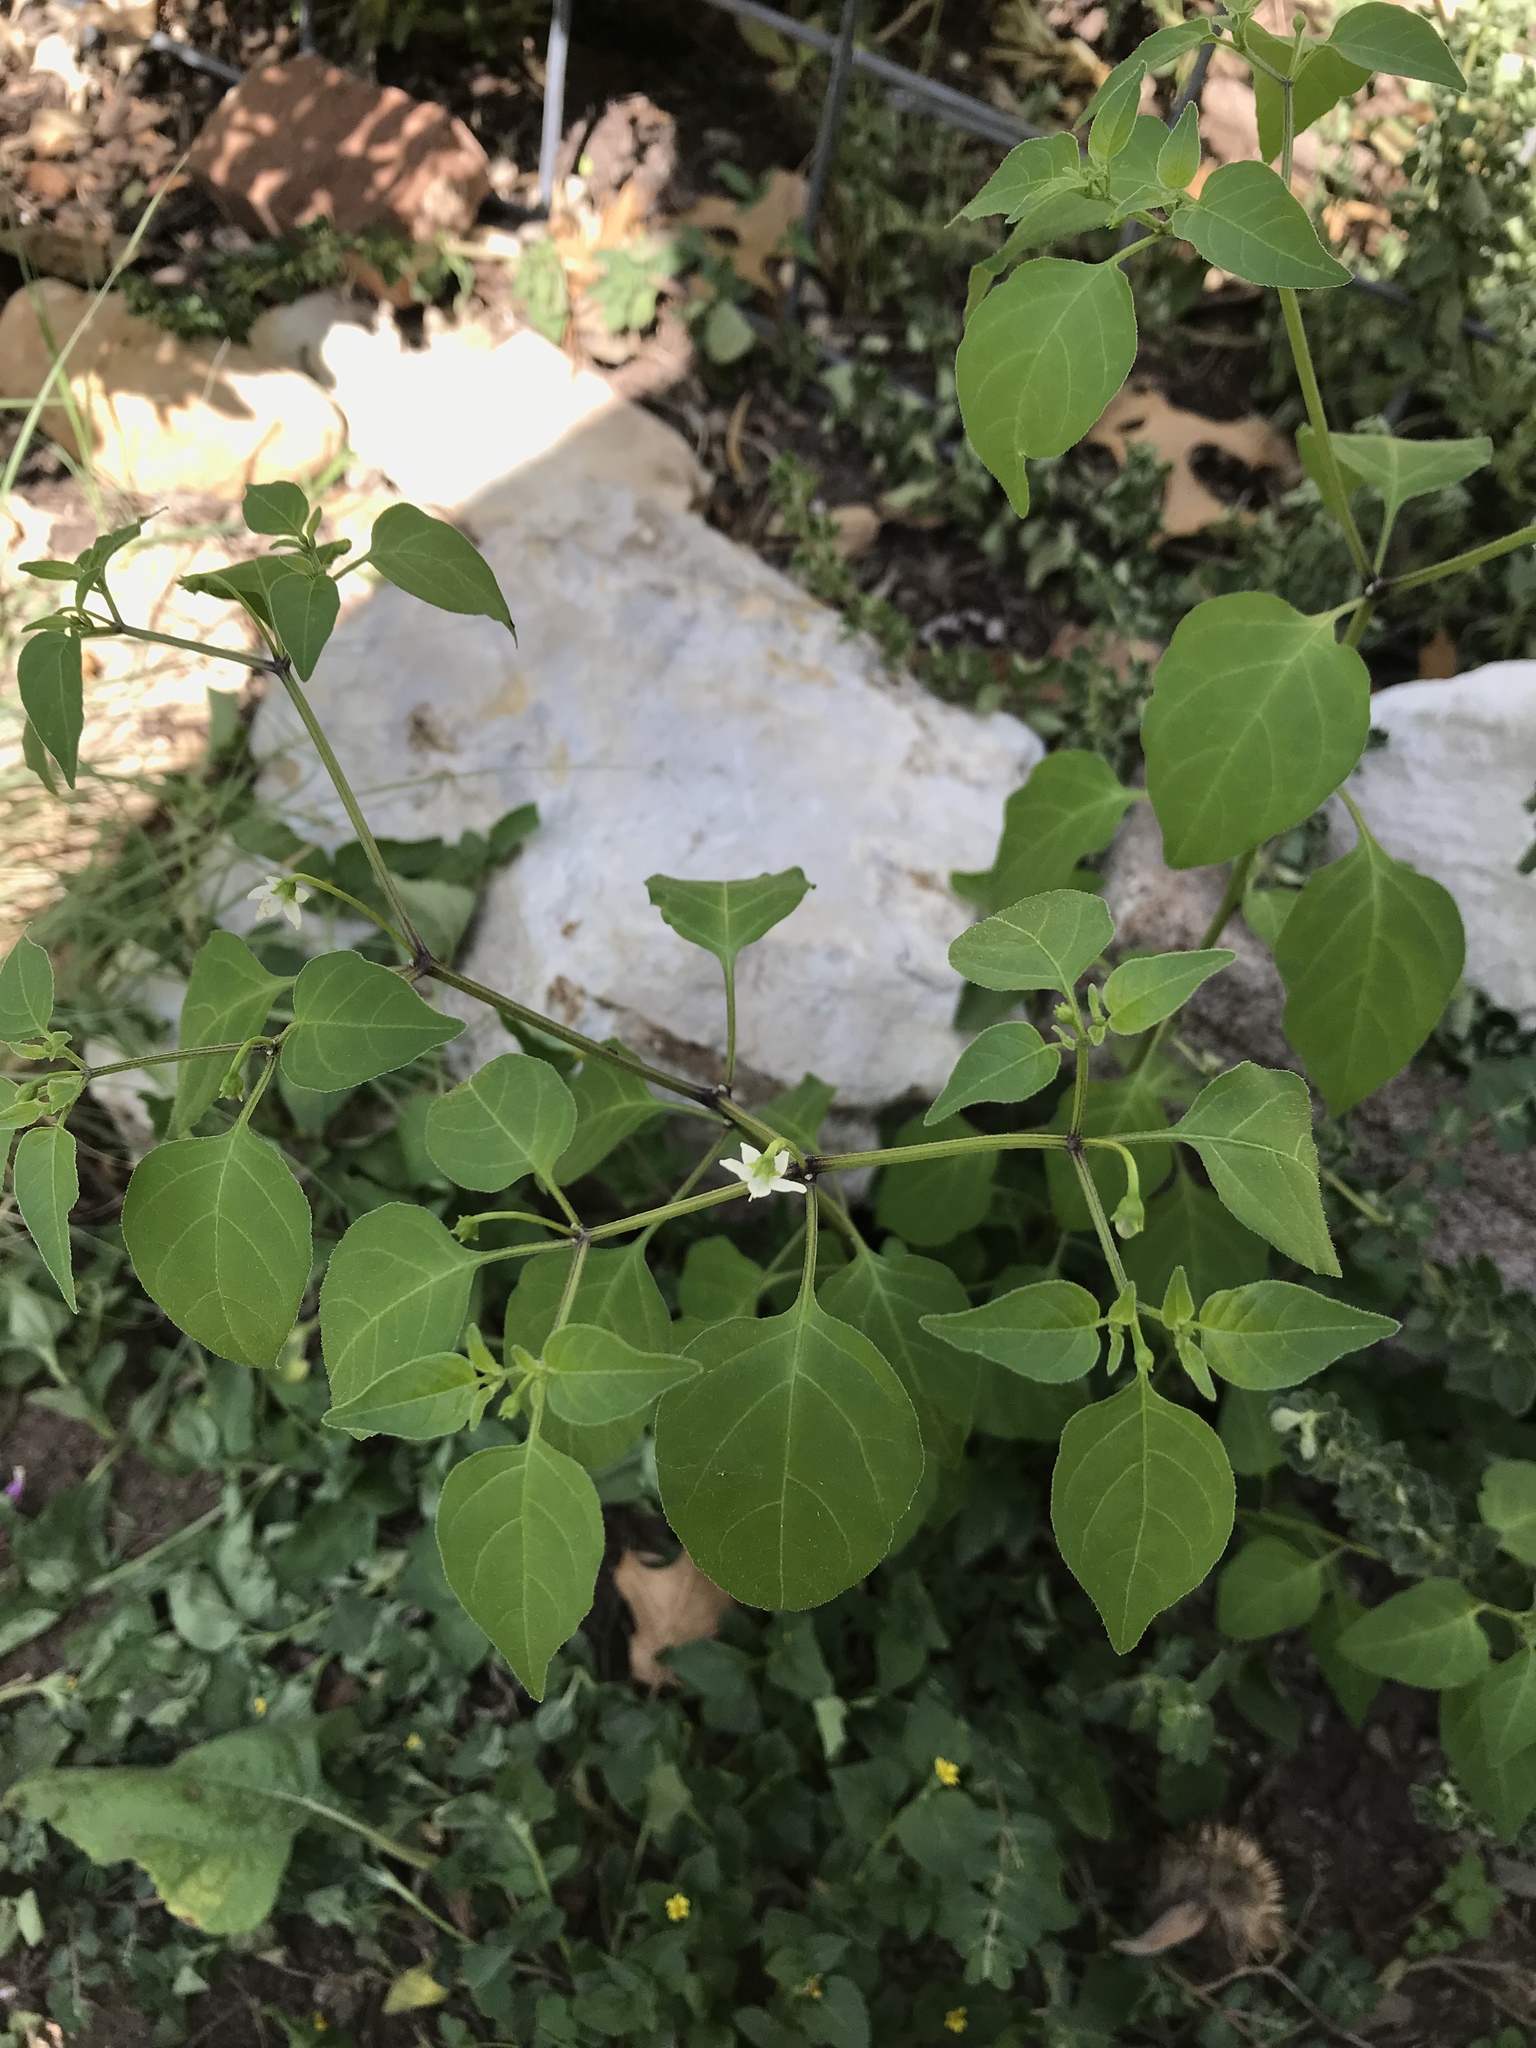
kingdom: Plantae
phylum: Tracheophyta
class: Magnoliopsida
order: Solanales
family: Solanaceae
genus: Capsicum
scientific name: Capsicum annuum
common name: Sweet pepper
